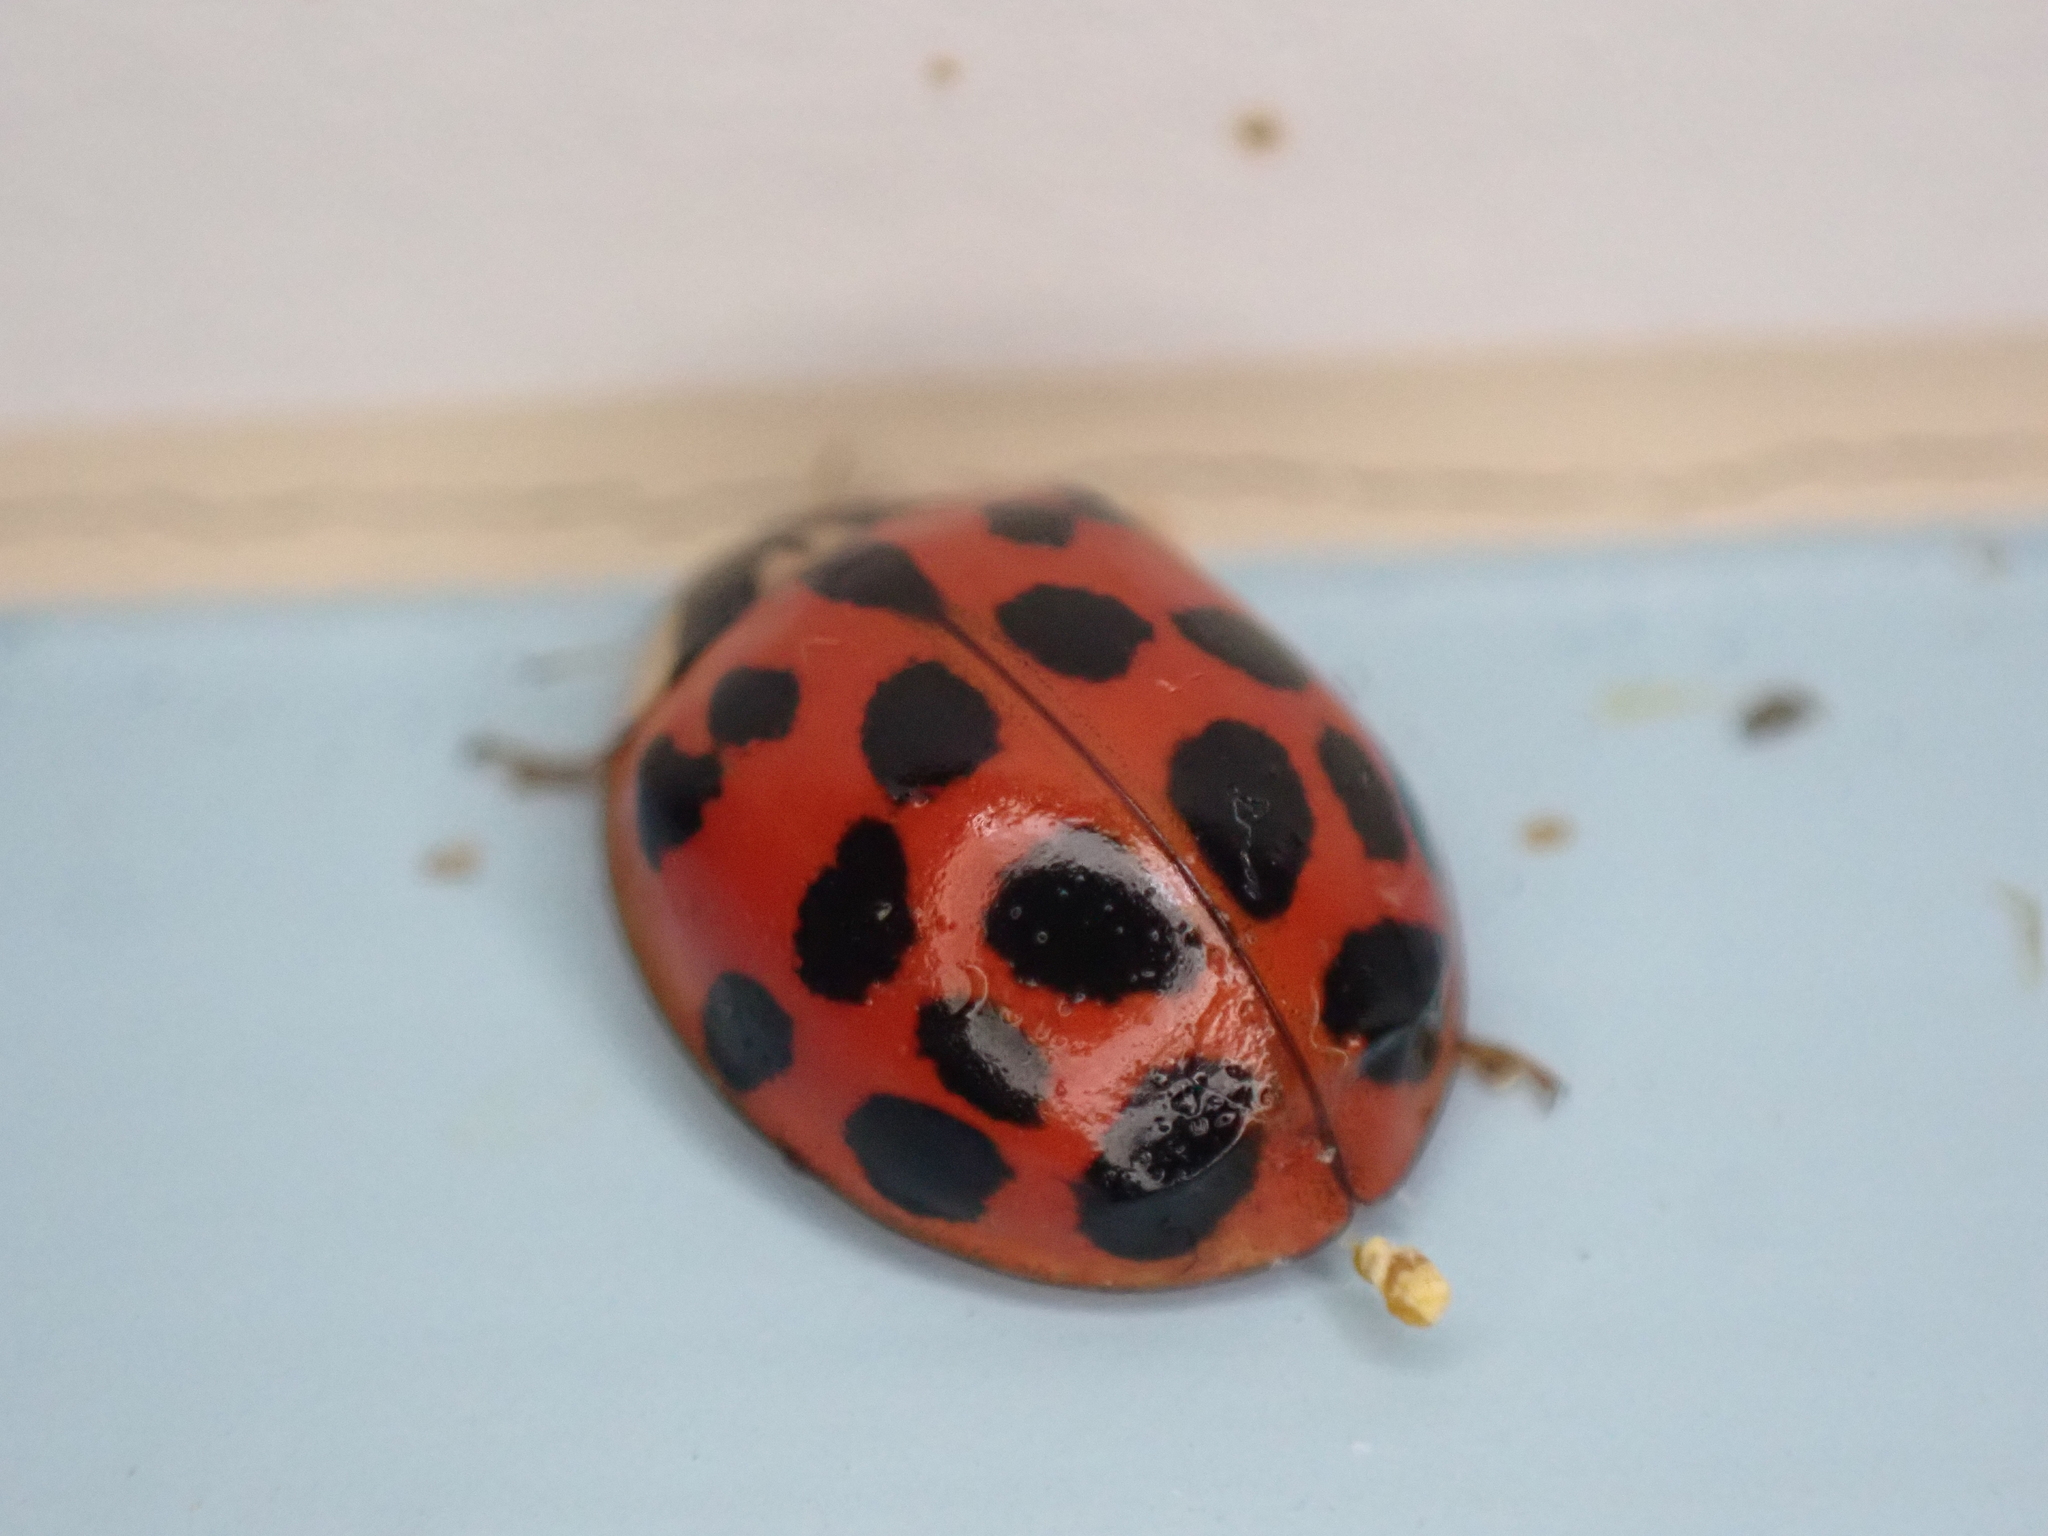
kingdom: Animalia
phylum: Arthropoda
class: Insecta
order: Coleoptera
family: Coccinellidae
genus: Harmonia
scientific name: Harmonia axyridis
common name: Harlequin ladybird
